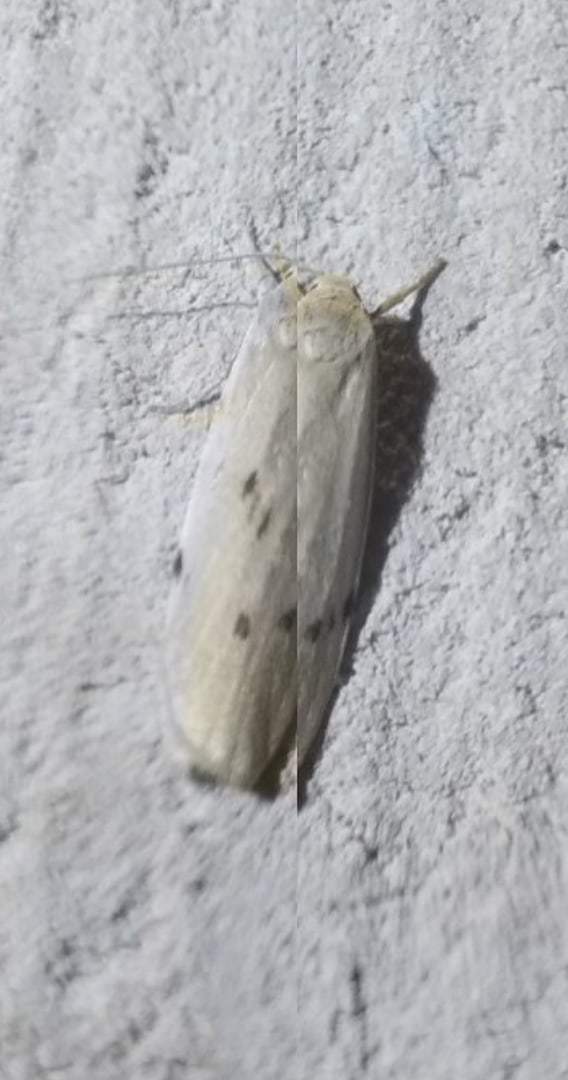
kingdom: Animalia
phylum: Arthropoda
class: Insecta
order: Lepidoptera
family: Erebidae
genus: Pelosia
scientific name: Pelosia muscerda
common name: Dotted footman
